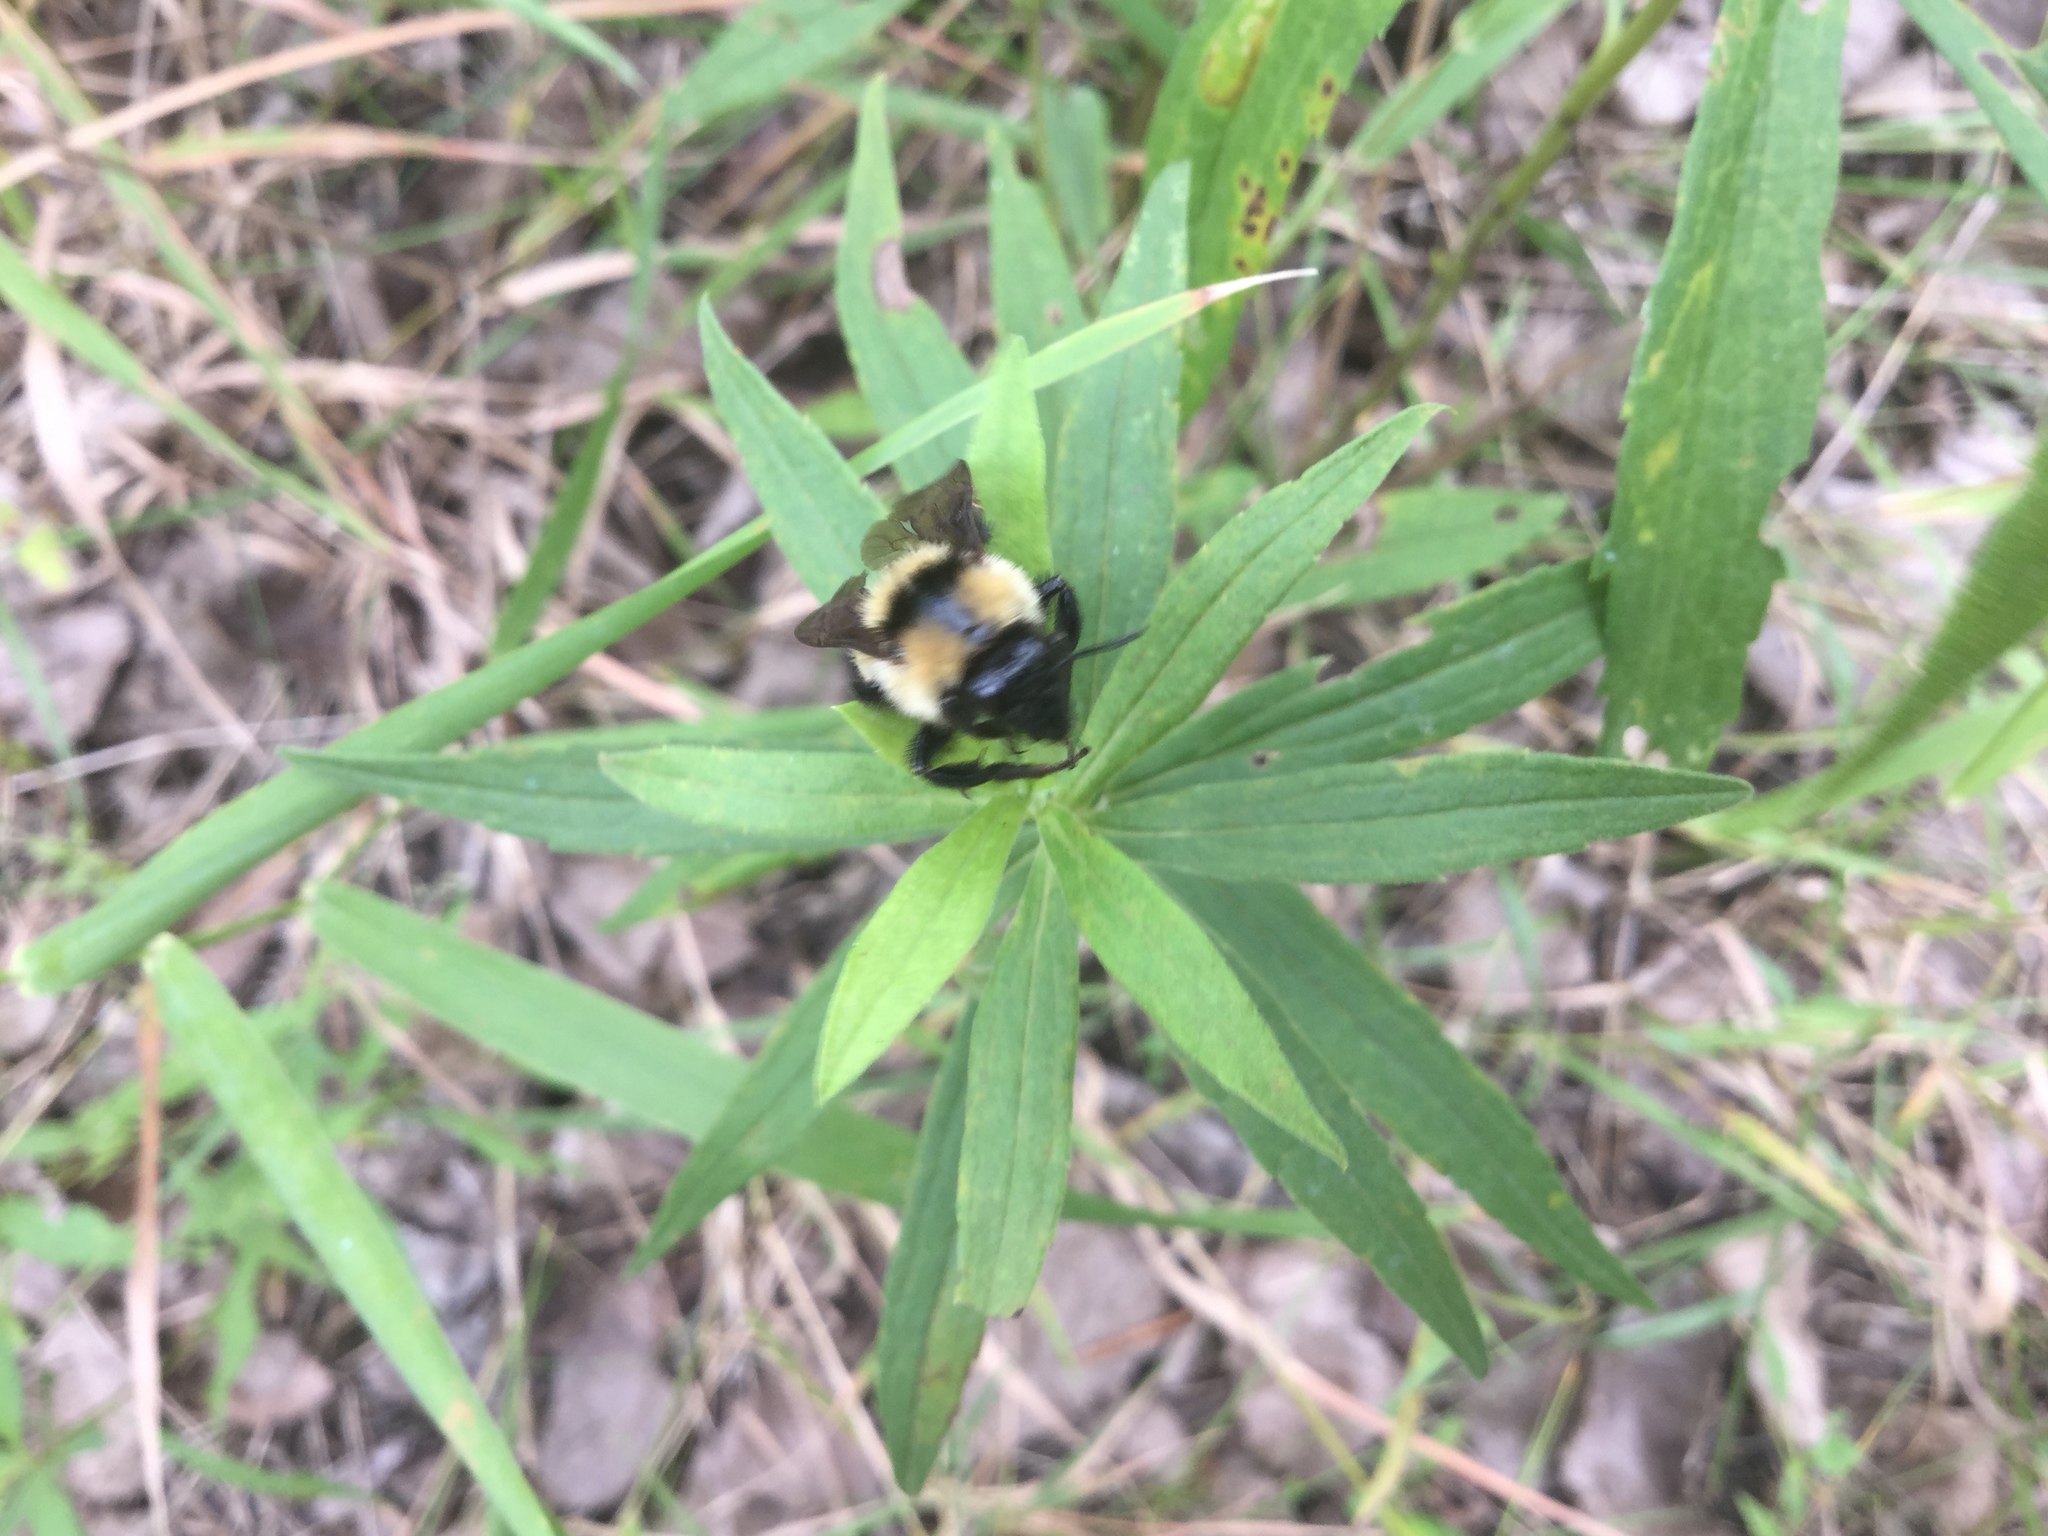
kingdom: Animalia
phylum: Arthropoda
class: Insecta
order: Hymenoptera
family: Apidae
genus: Bombus
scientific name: Bombus fervidus
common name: Yellow bumble bee
